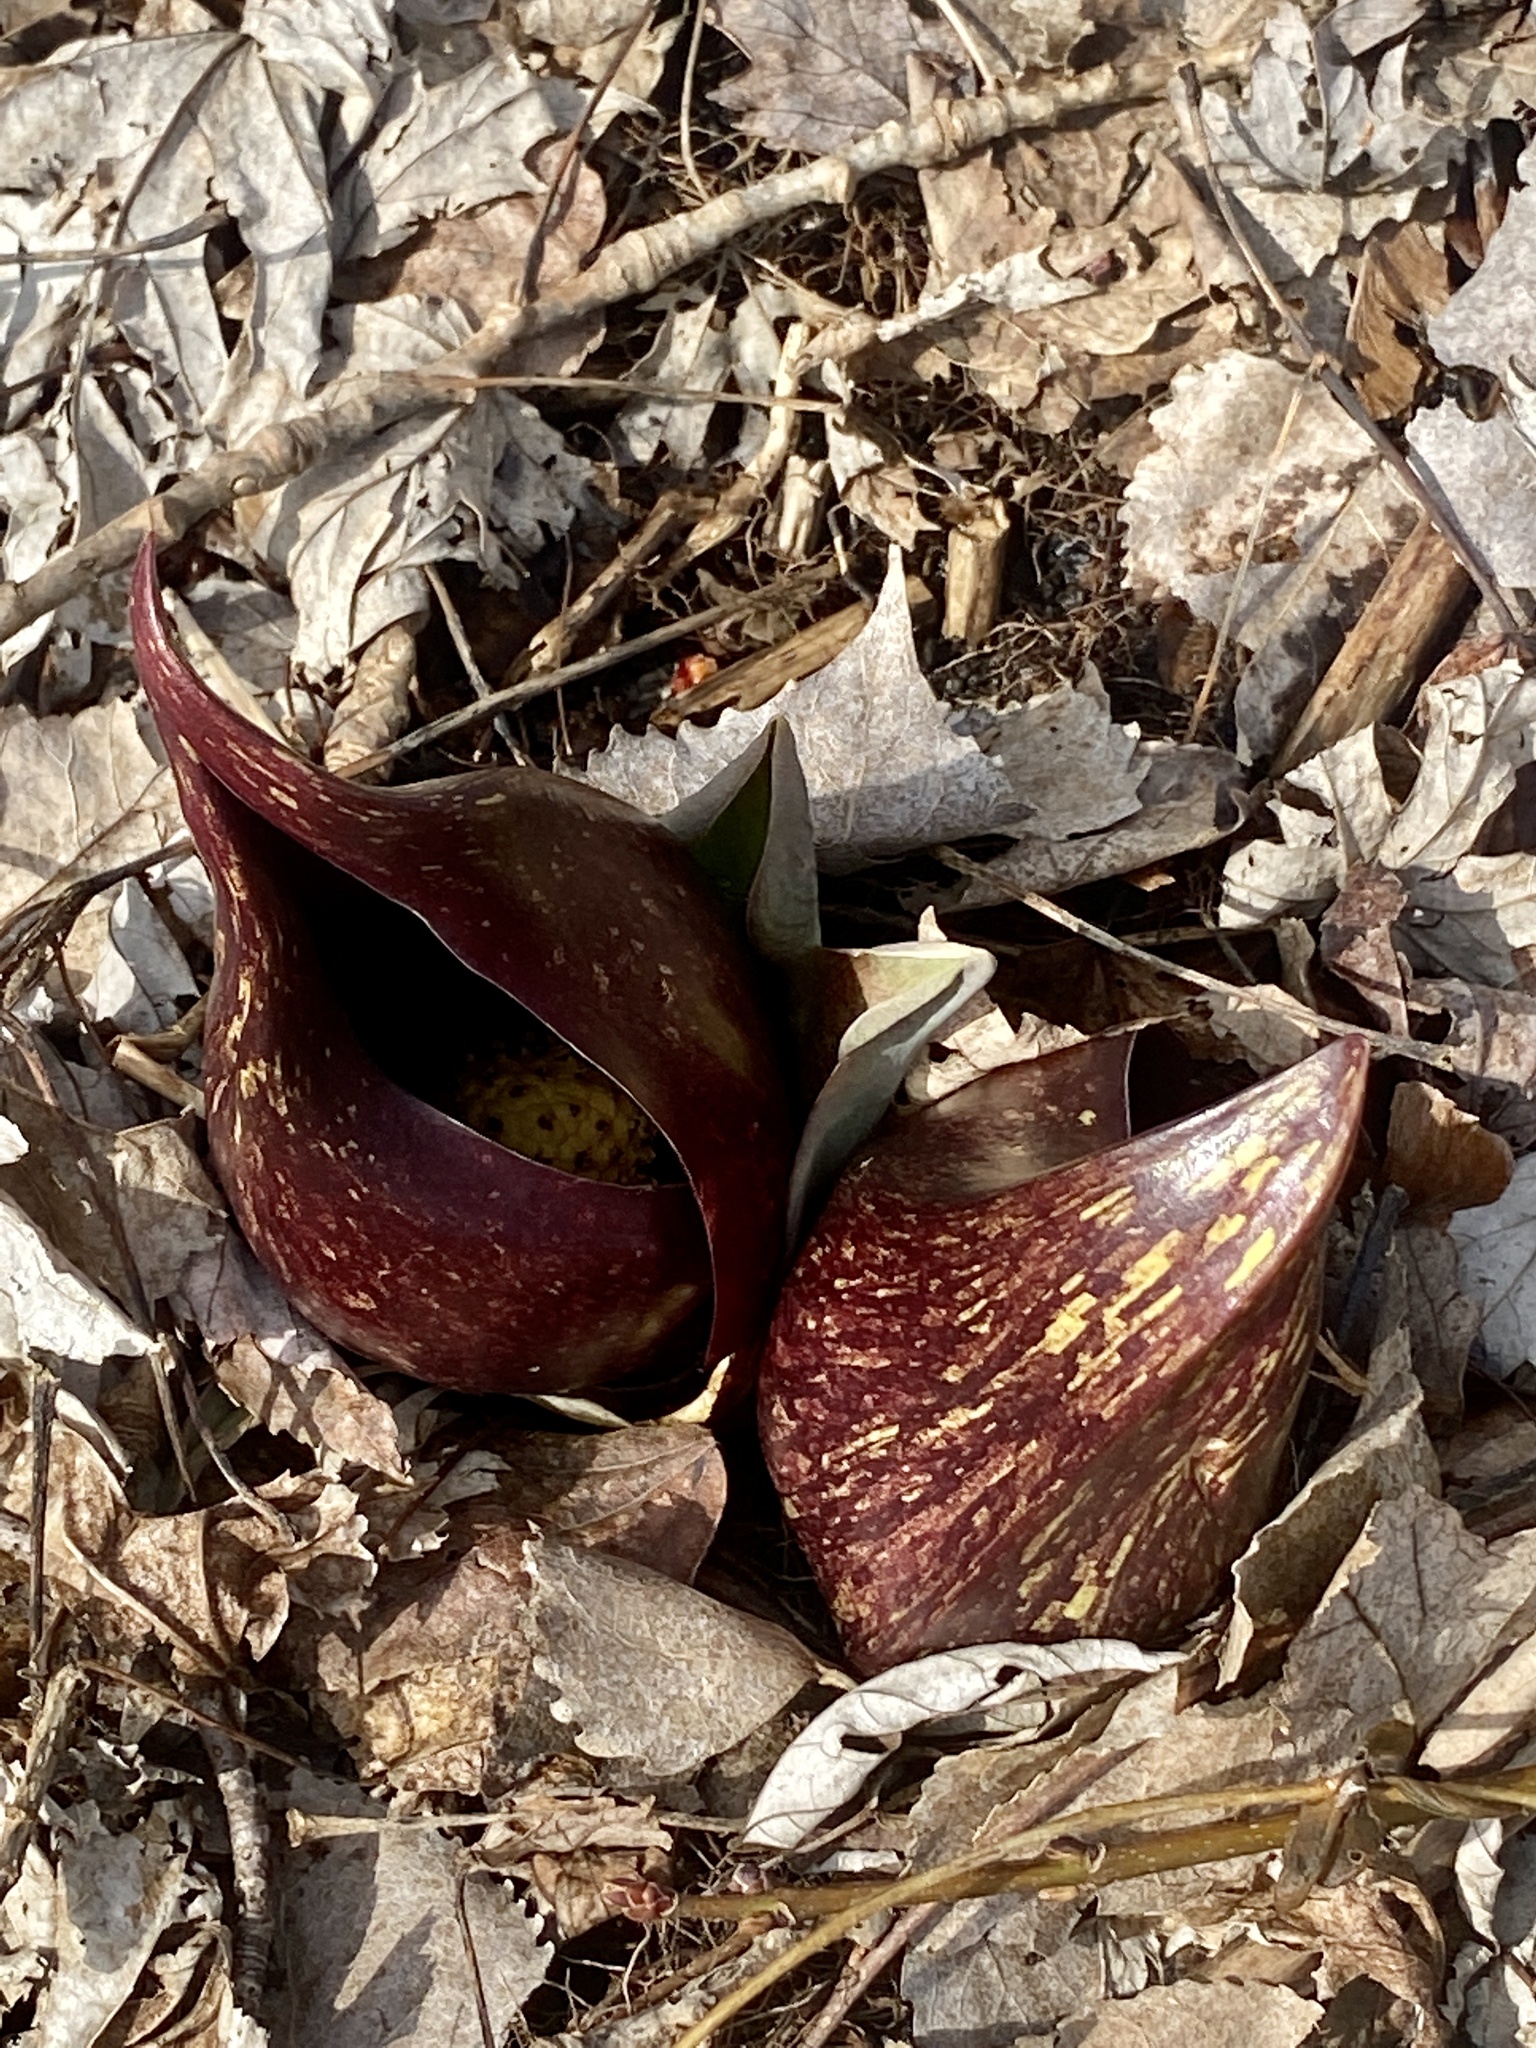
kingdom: Plantae
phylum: Tracheophyta
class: Liliopsida
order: Alismatales
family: Araceae
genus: Symplocarpus
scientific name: Symplocarpus foetidus
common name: Eastern skunk cabbage
